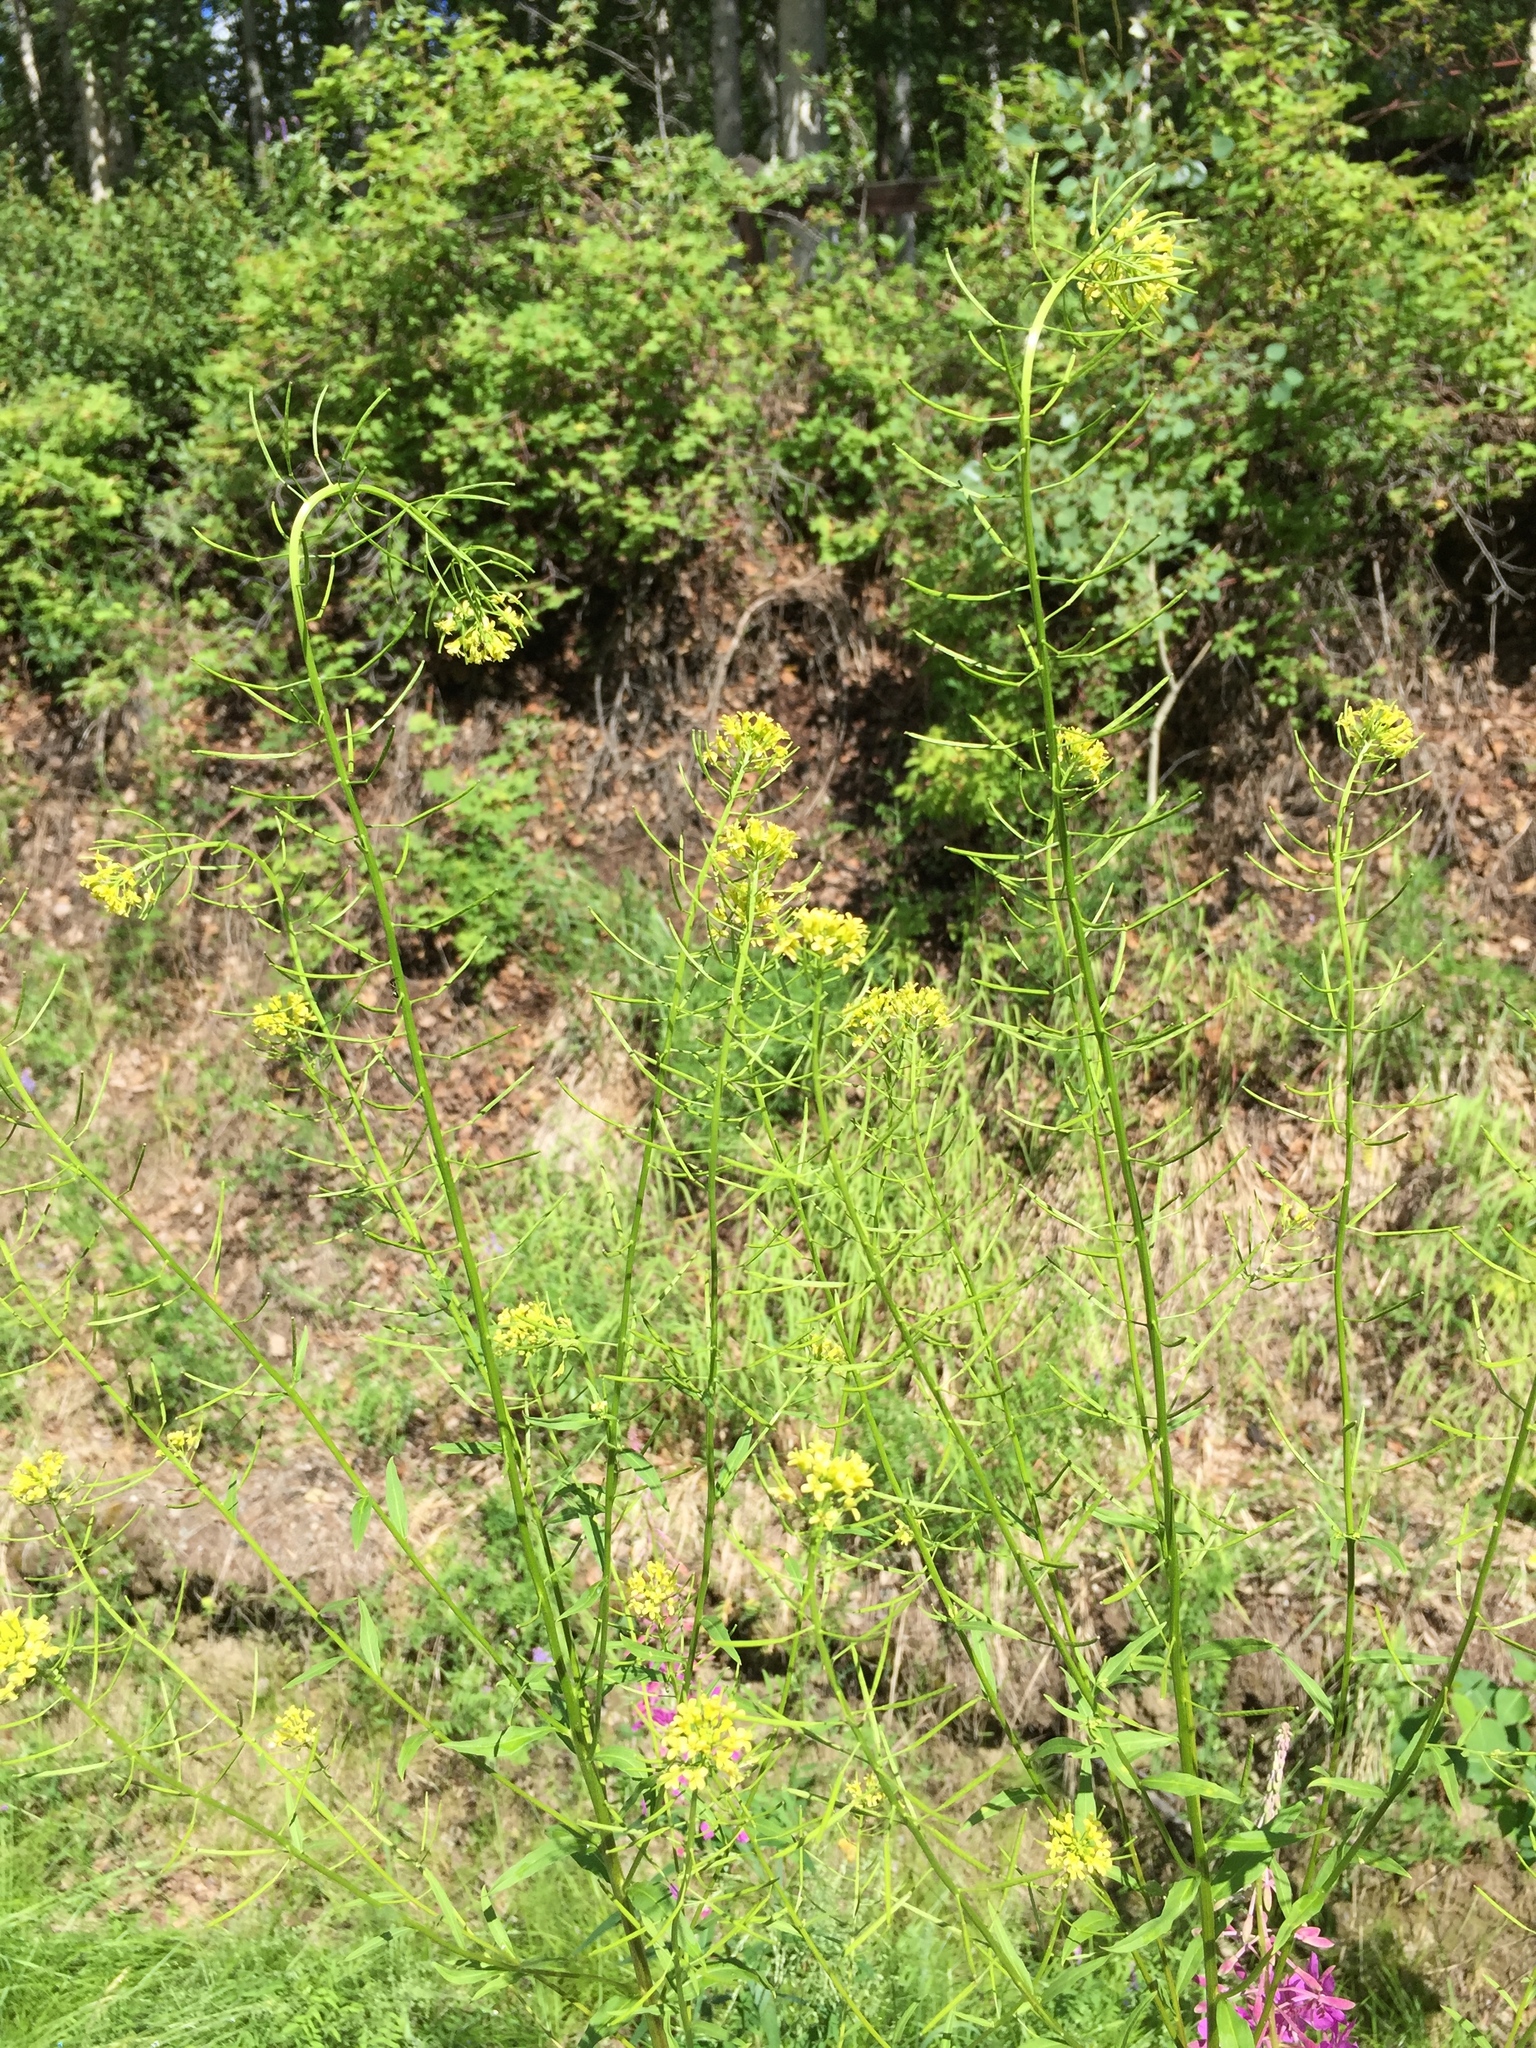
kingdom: Plantae
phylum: Tracheophyta
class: Magnoliopsida
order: Brassicales
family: Brassicaceae
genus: Erysimum
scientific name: Erysimum cheiranthoides
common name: Treacle mustard
